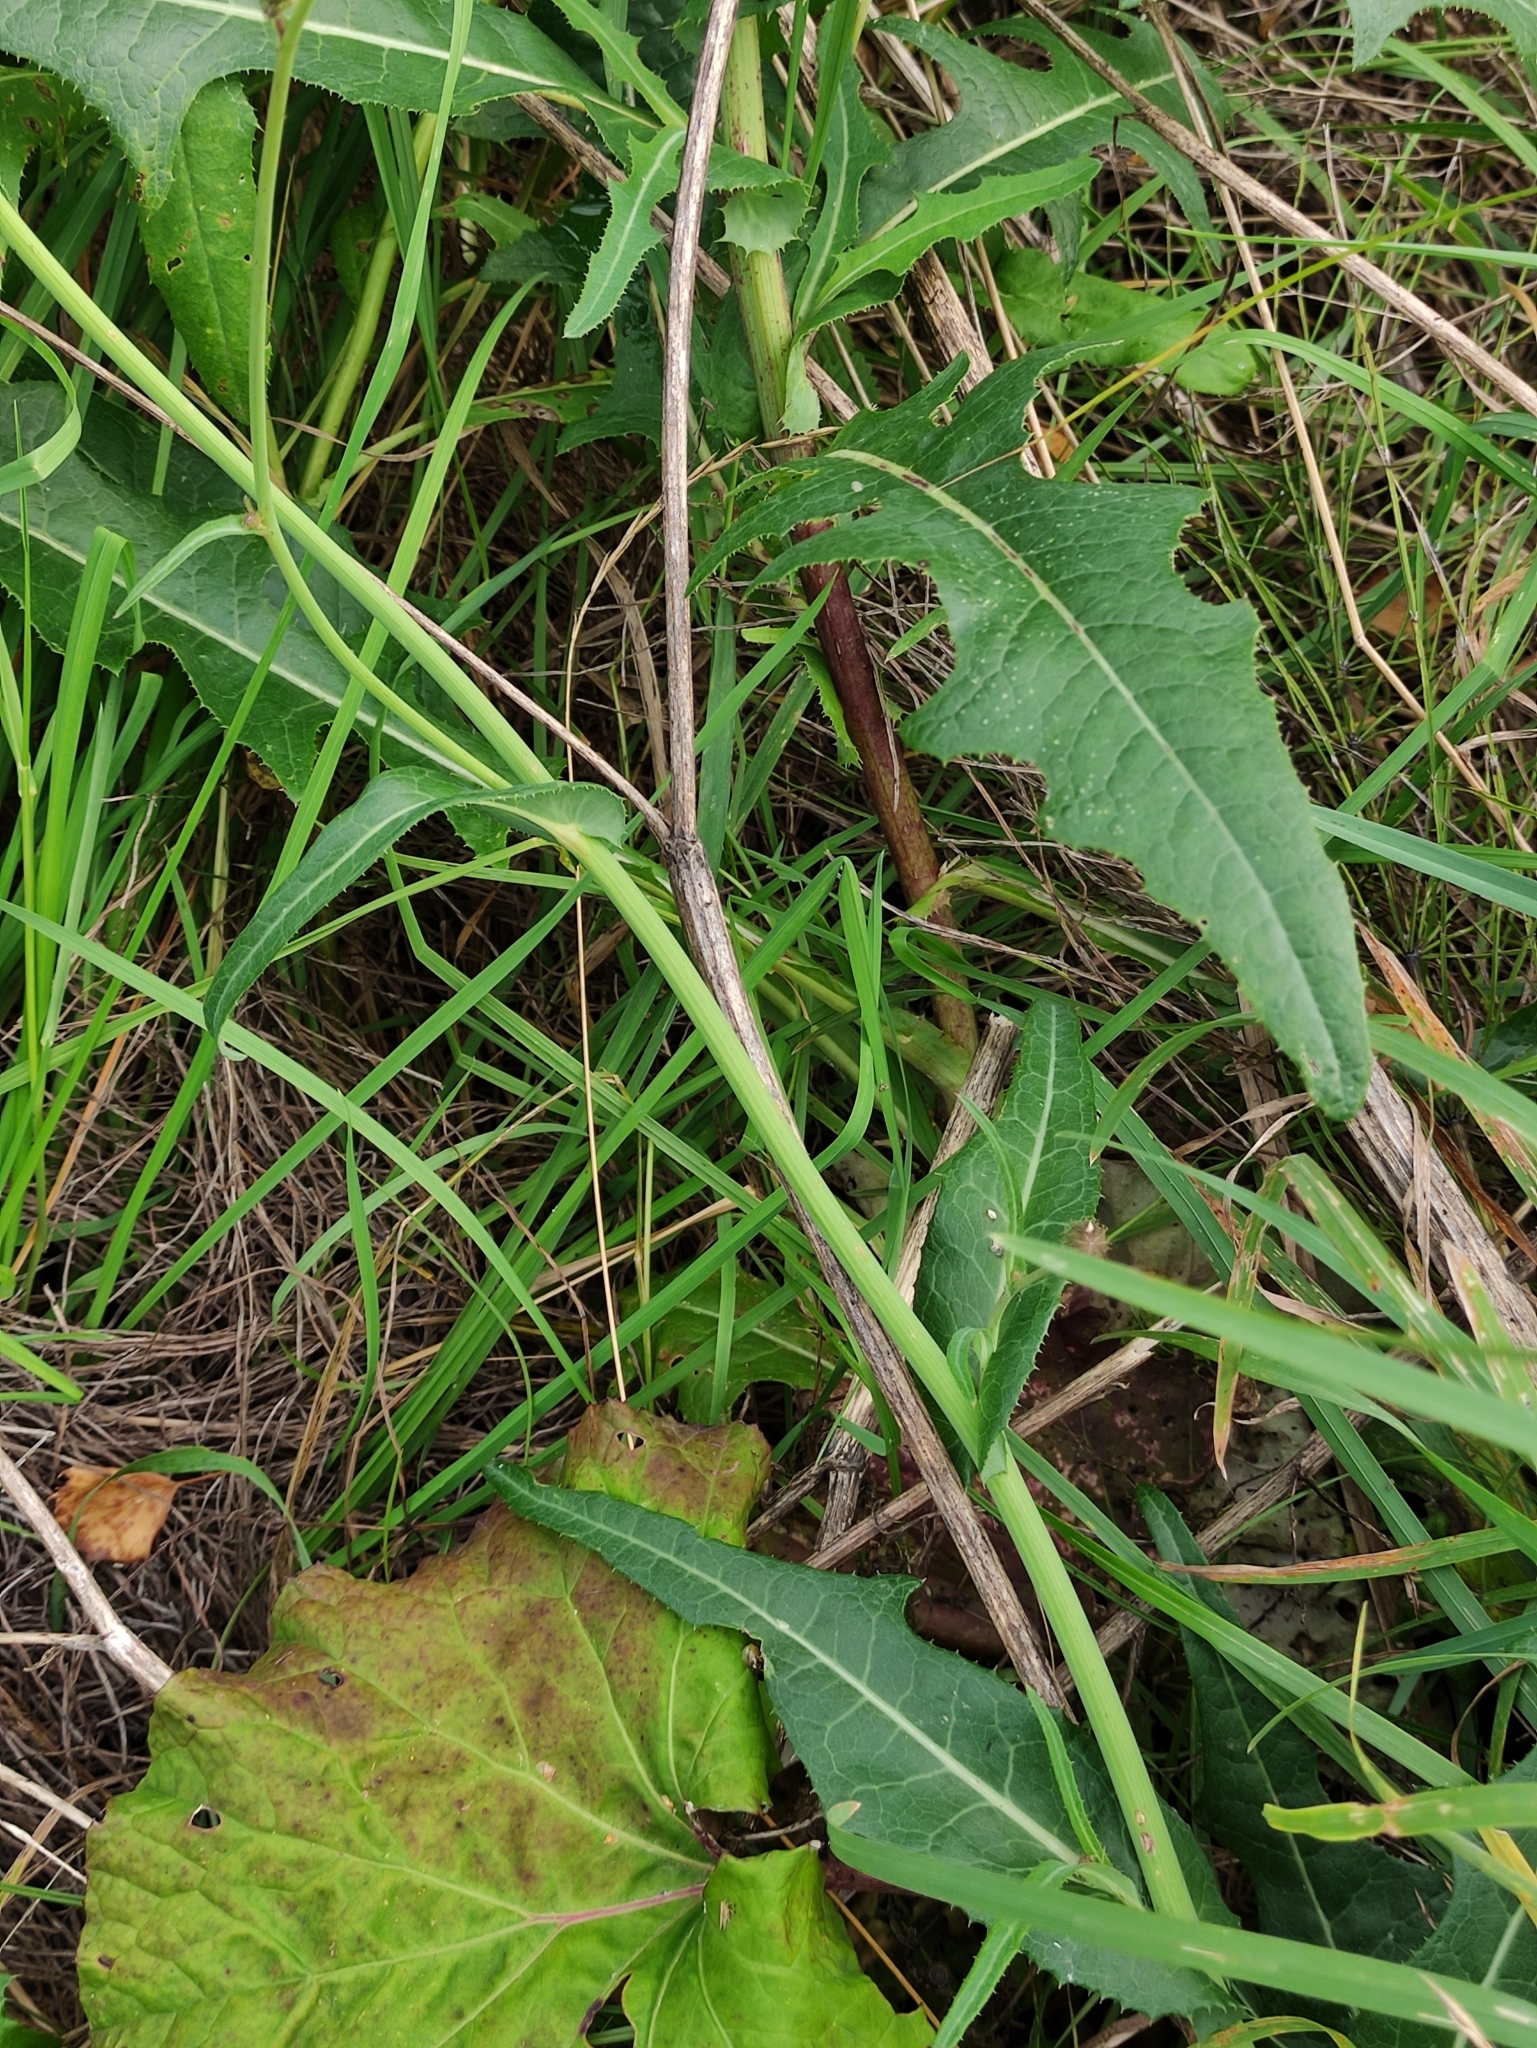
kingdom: Plantae
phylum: Tracheophyta
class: Magnoliopsida
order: Asterales
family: Asteraceae
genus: Sonchus
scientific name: Sonchus arvensis
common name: Perennial sow-thistle
